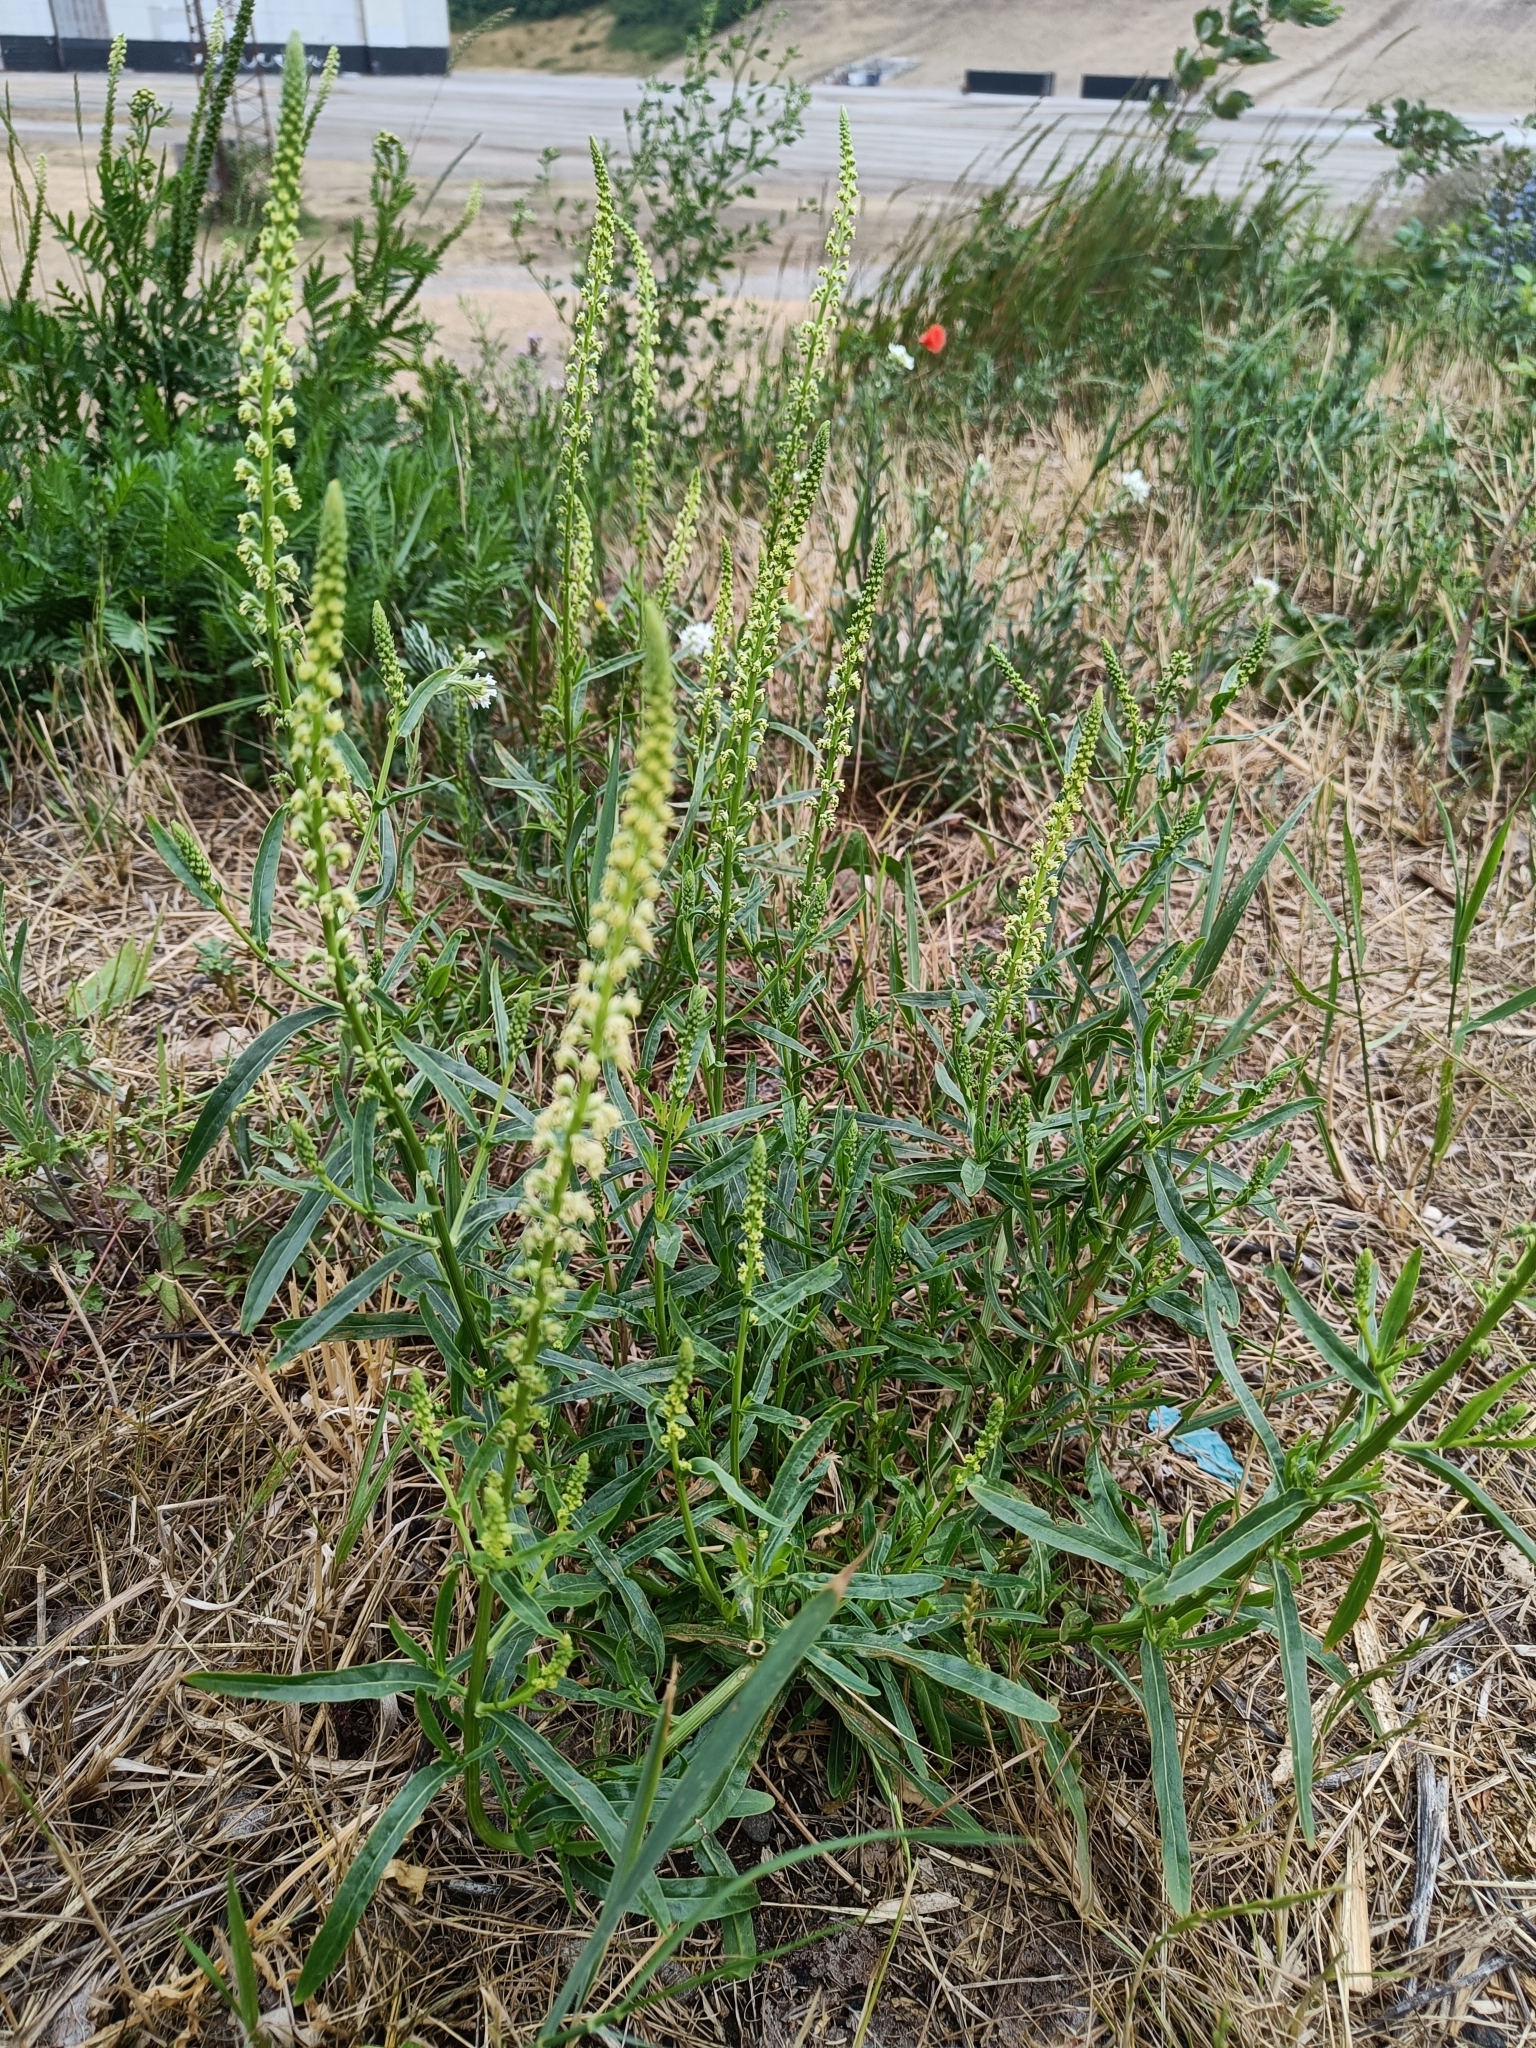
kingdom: Plantae
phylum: Tracheophyta
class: Magnoliopsida
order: Brassicales
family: Resedaceae
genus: Reseda
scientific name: Reseda luteola
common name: Weld
